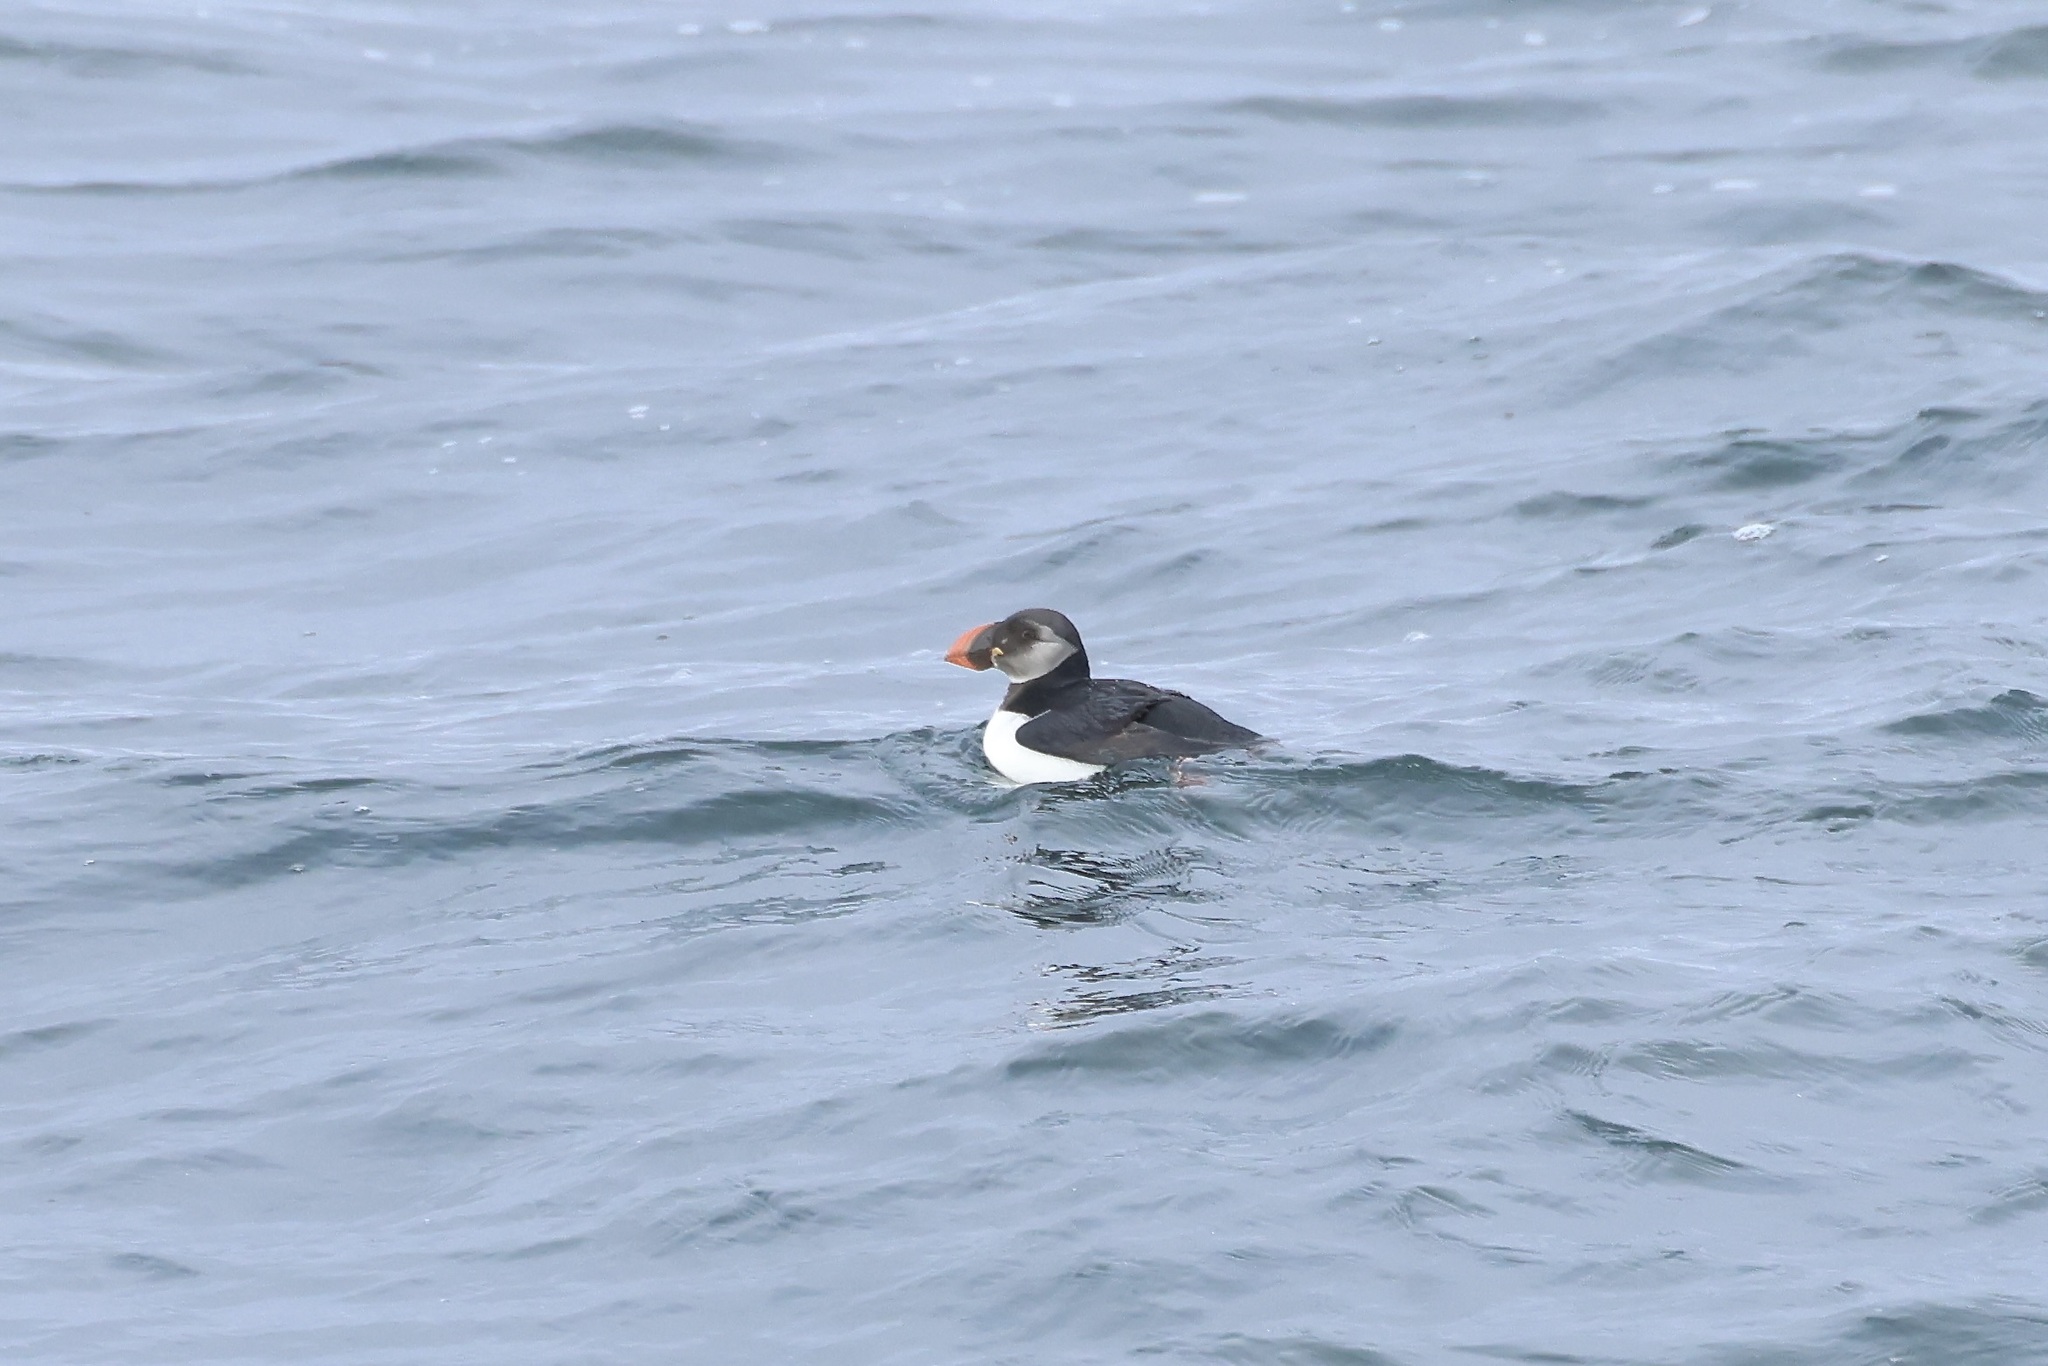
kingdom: Animalia
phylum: Chordata
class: Aves
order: Charadriiformes
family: Alcidae
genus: Fratercula
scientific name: Fratercula arctica
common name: Atlantic puffin
